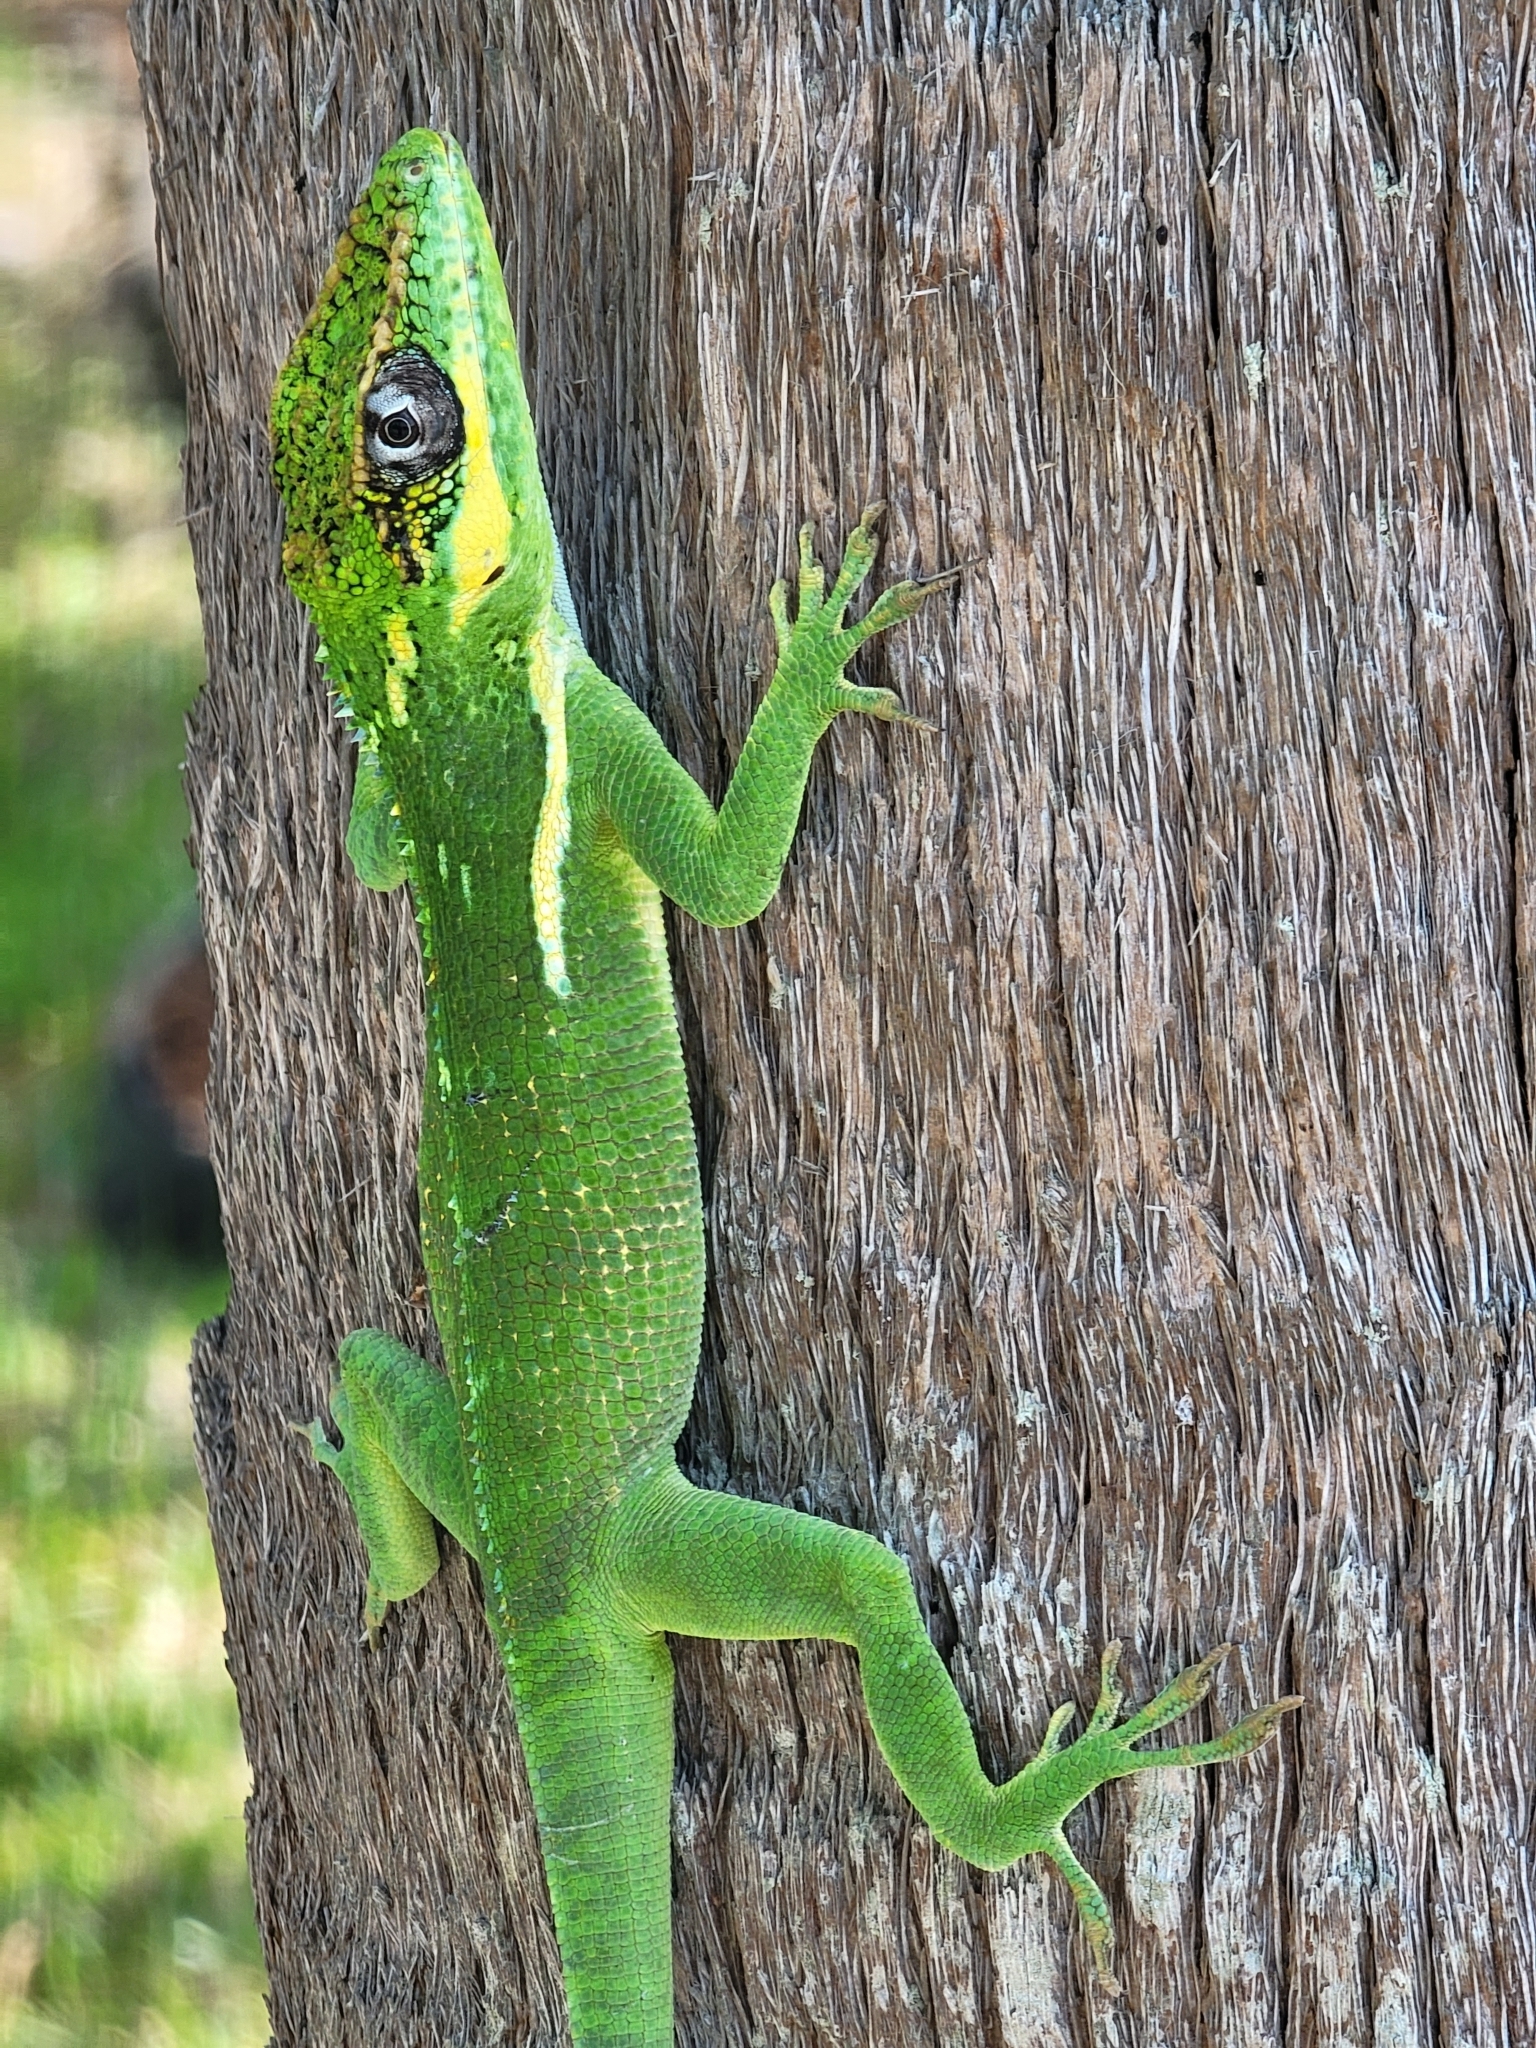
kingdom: Animalia
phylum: Chordata
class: Squamata
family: Dactyloidae
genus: Anolis
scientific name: Anolis equestris
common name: Knight anole
